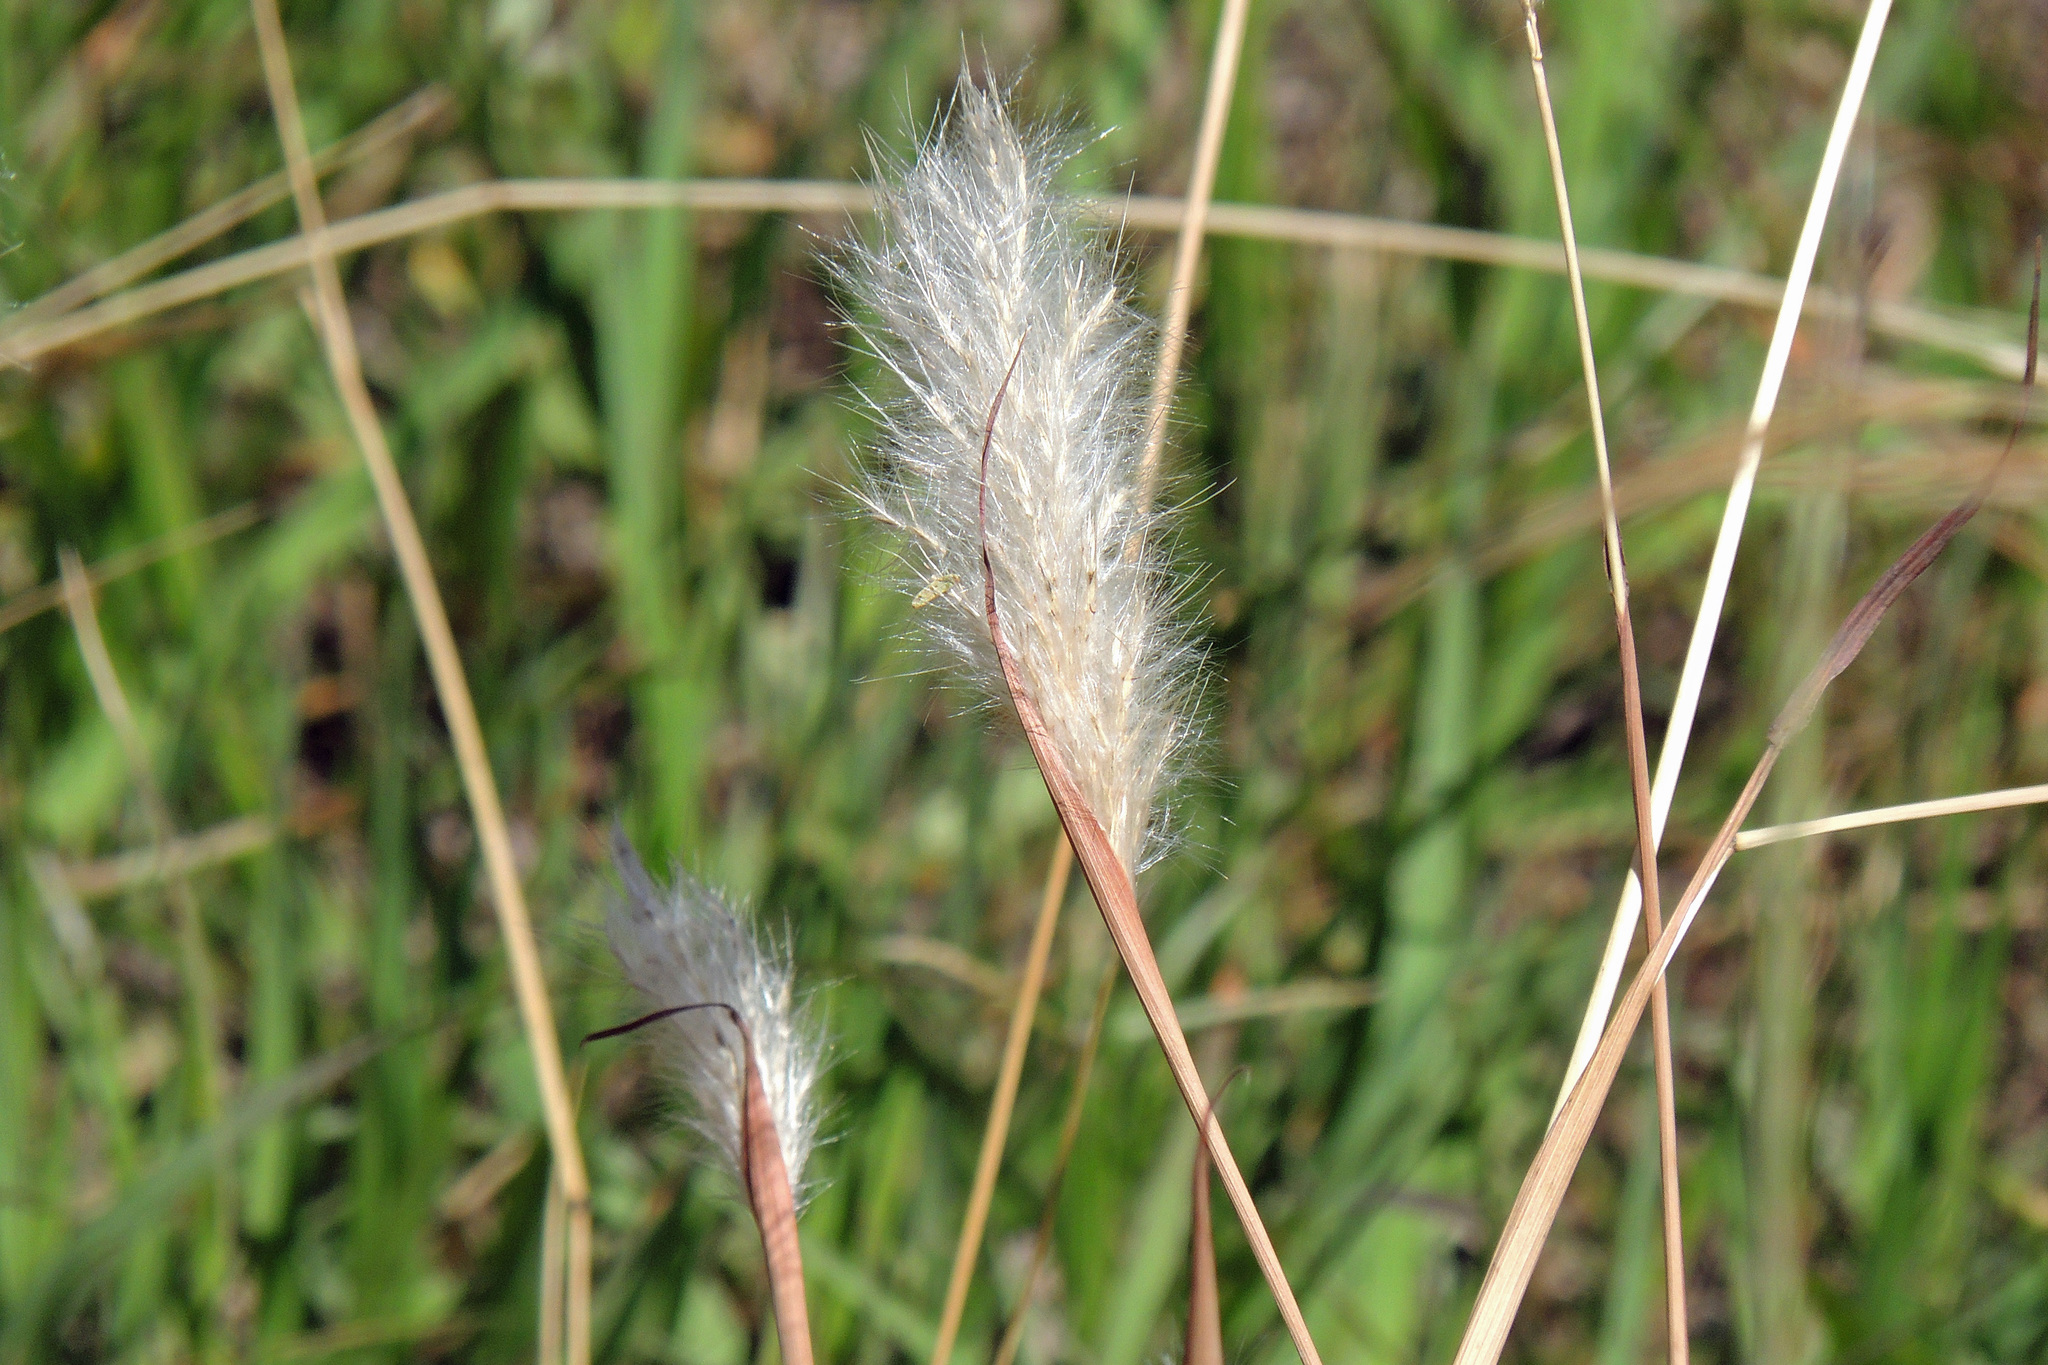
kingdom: Plantae
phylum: Tracheophyta
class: Liliopsida
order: Poales
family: Poaceae
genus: Bothriochloa
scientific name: Bothriochloa laguroides
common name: Silver bluestem
